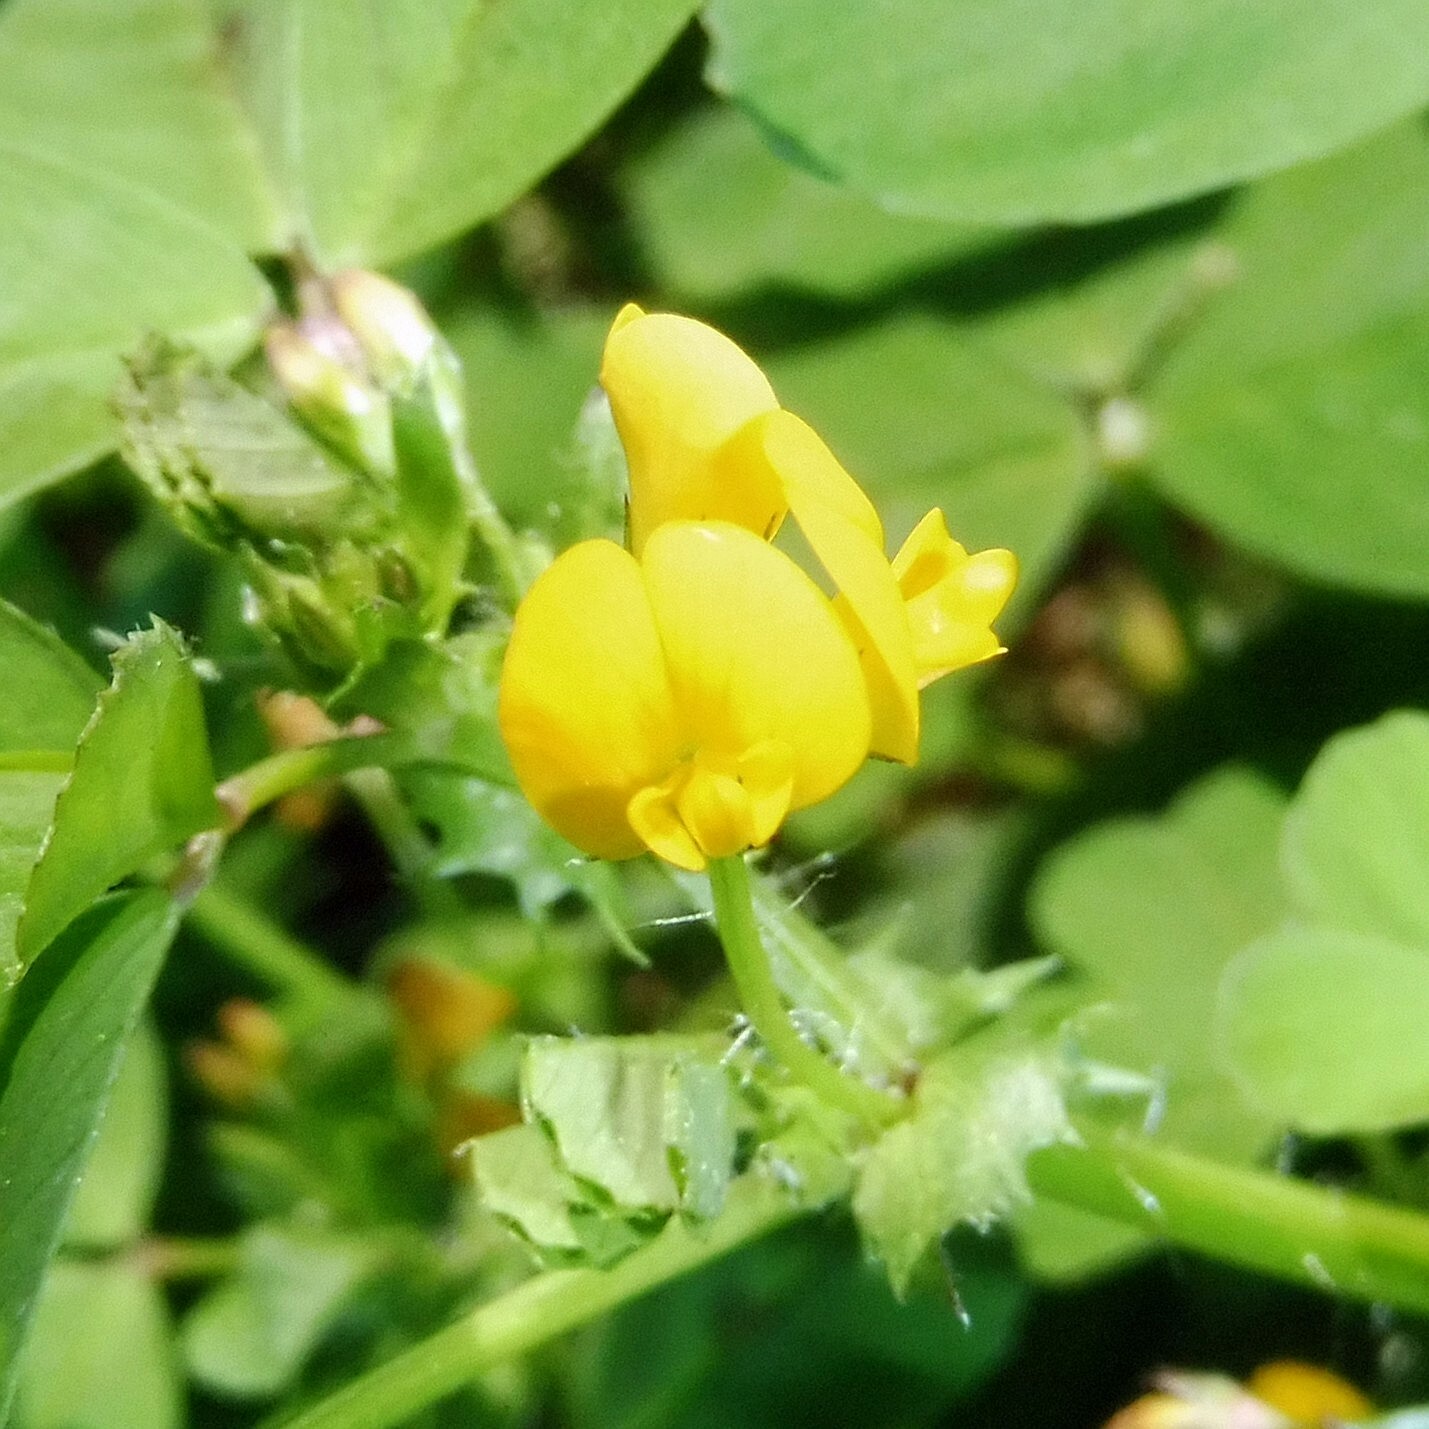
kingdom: Plantae
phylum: Tracheophyta
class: Magnoliopsida
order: Fabales
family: Fabaceae
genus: Medicago
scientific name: Medicago arabica
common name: Spotted medick
